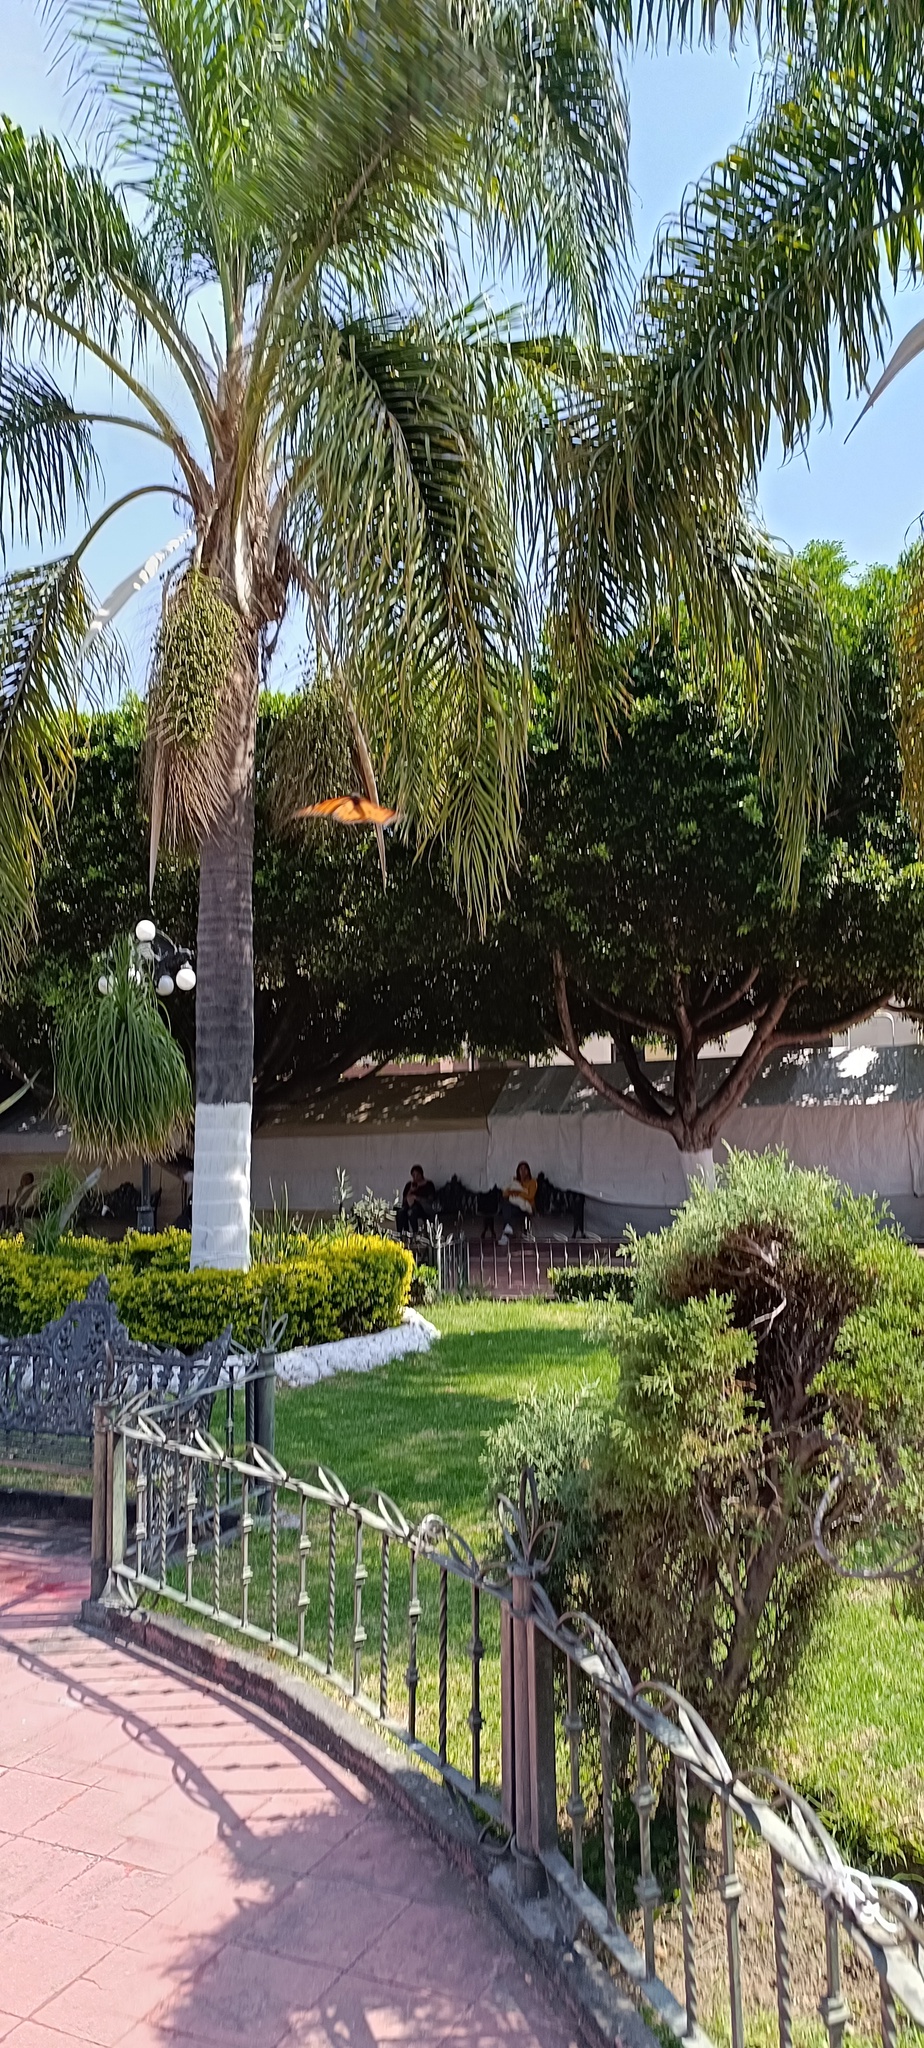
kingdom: Animalia
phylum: Arthropoda
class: Insecta
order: Lepidoptera
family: Nymphalidae
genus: Danaus
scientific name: Danaus plexippus
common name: Monarch
